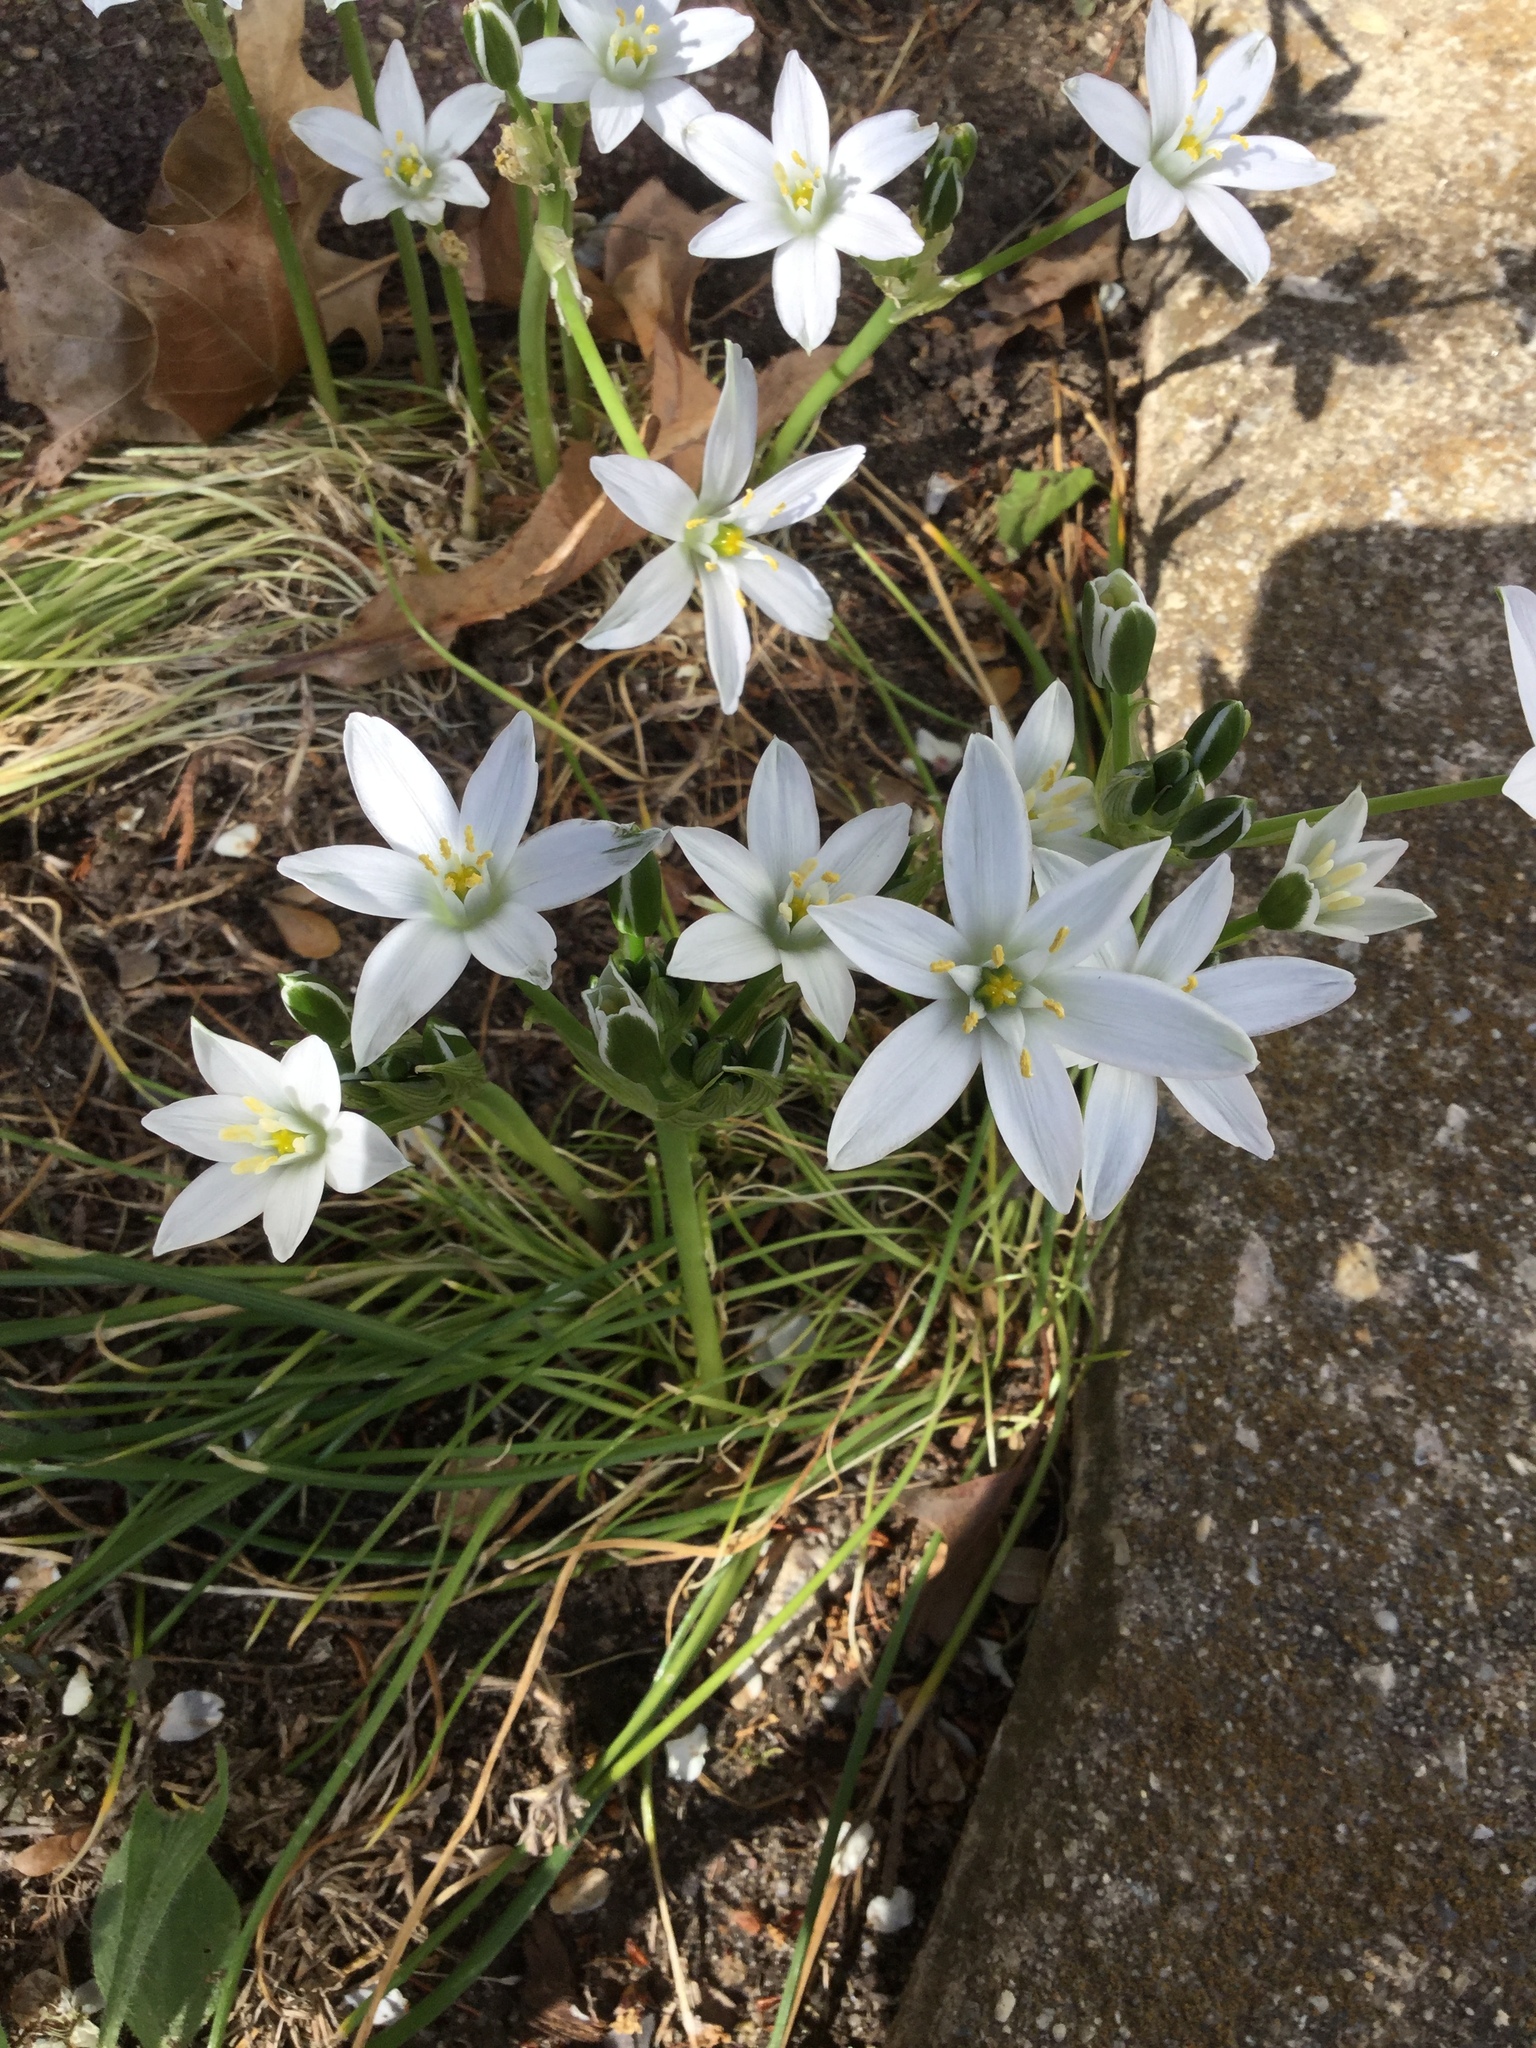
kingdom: Plantae
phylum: Tracheophyta
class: Liliopsida
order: Asparagales
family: Asparagaceae
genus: Ornithogalum
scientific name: Ornithogalum umbellatum
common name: Garden star-of-bethlehem
